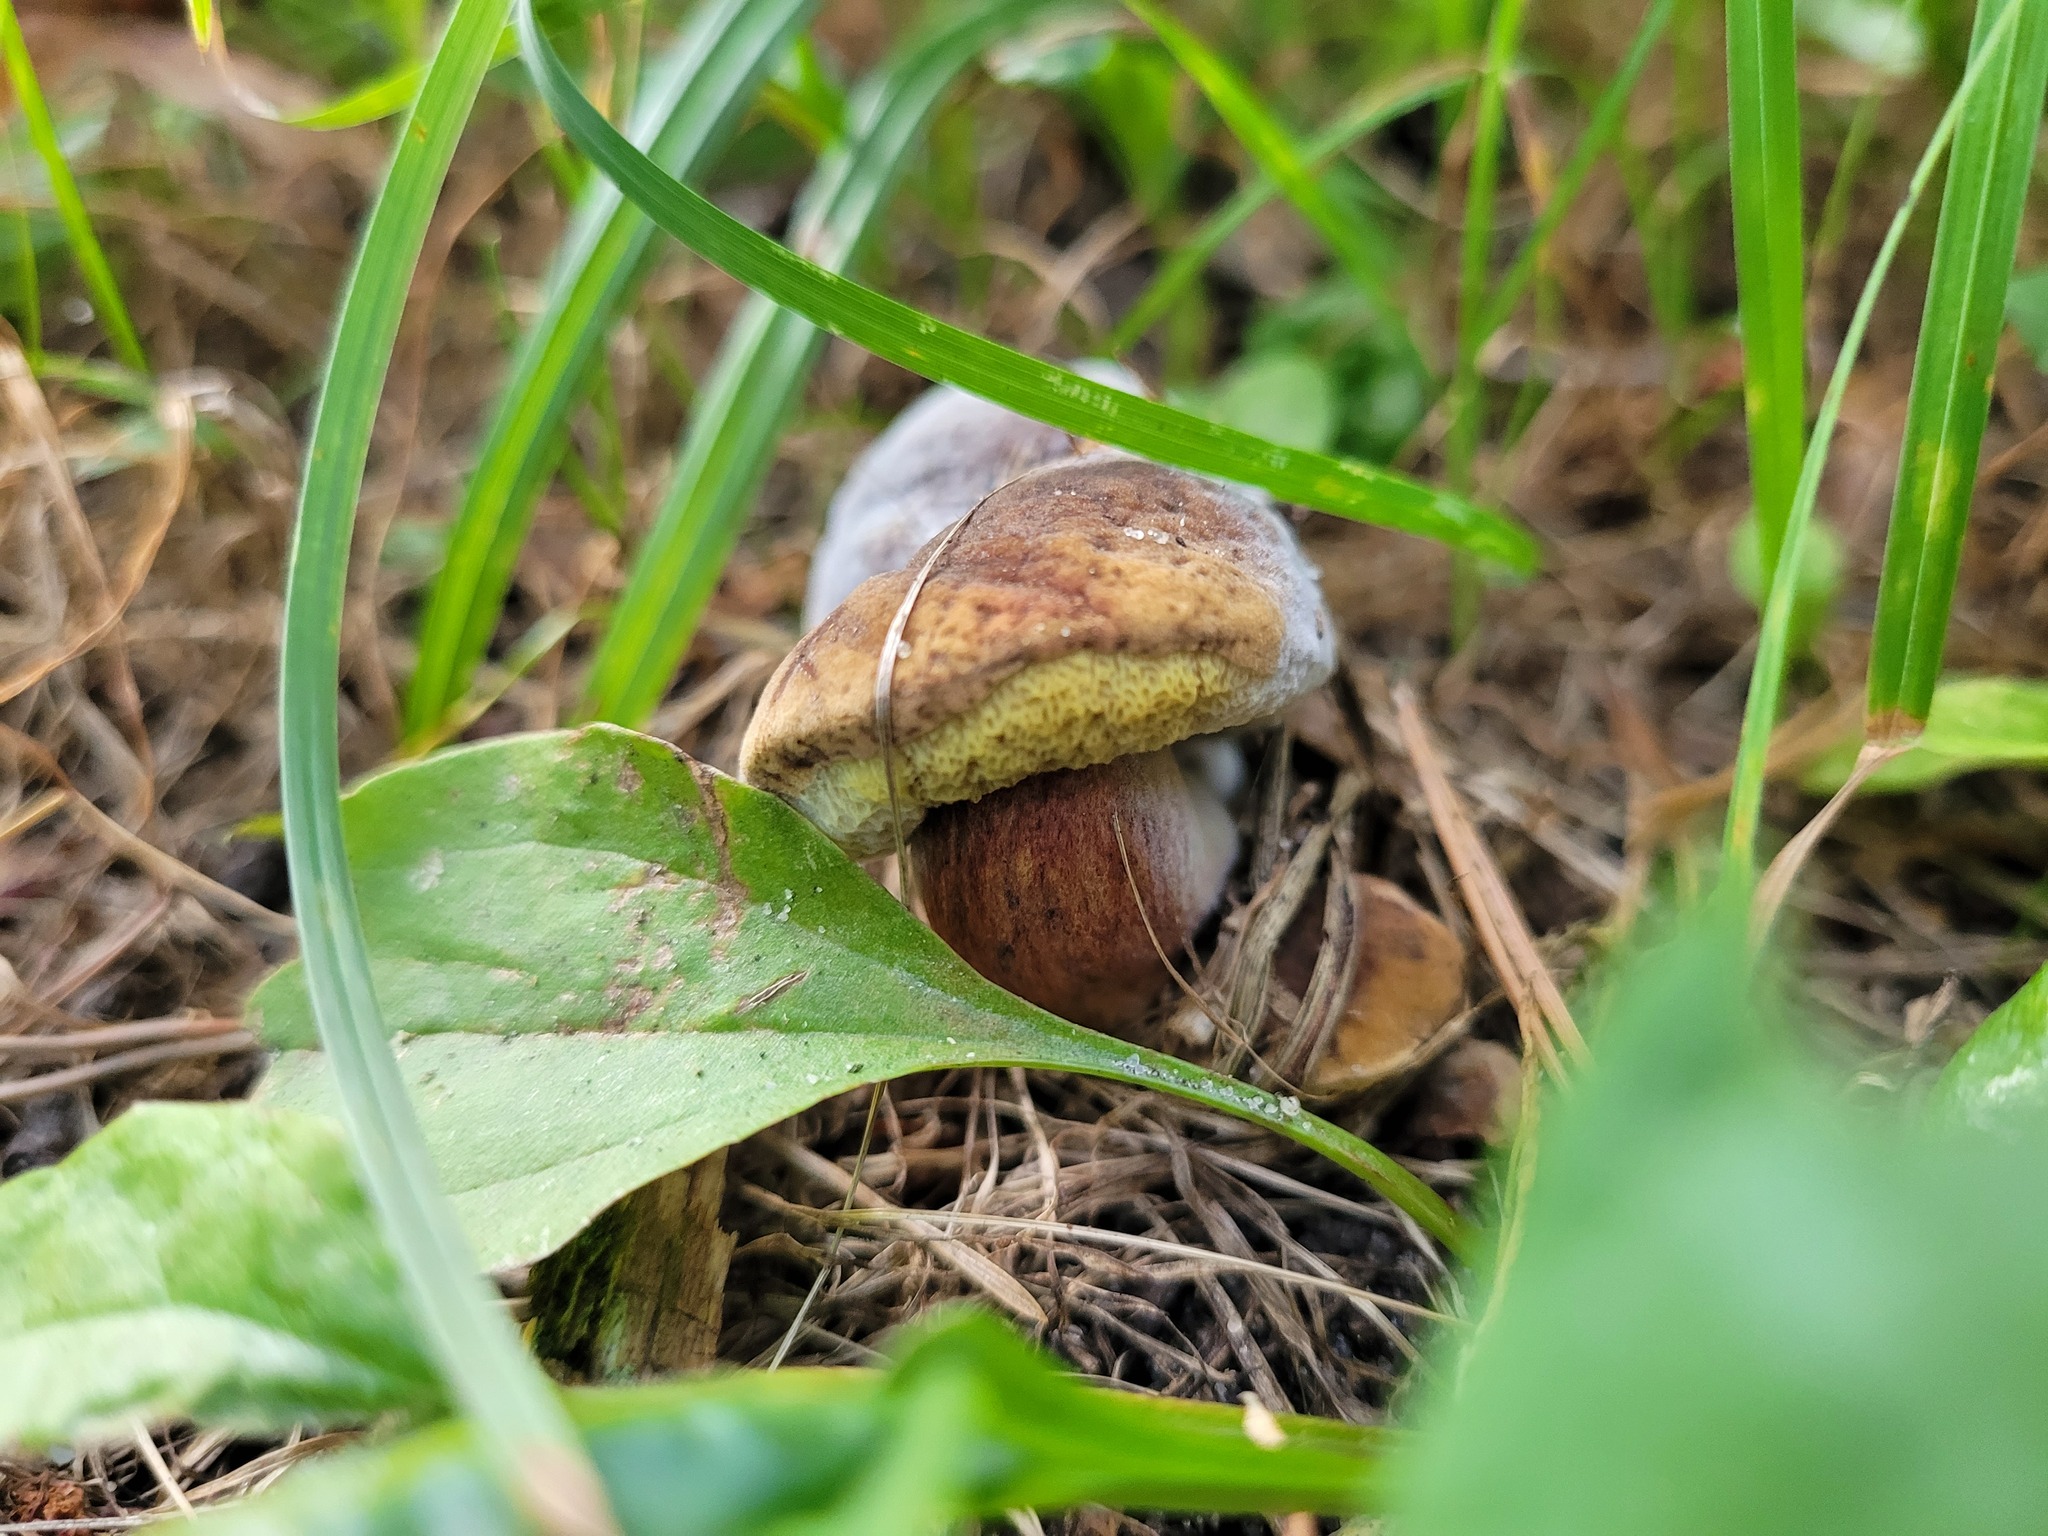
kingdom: Fungi
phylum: Basidiomycota
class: Agaricomycetes
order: Boletales
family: Boletaceae
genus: Hortiboletus
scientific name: Hortiboletus engelii
